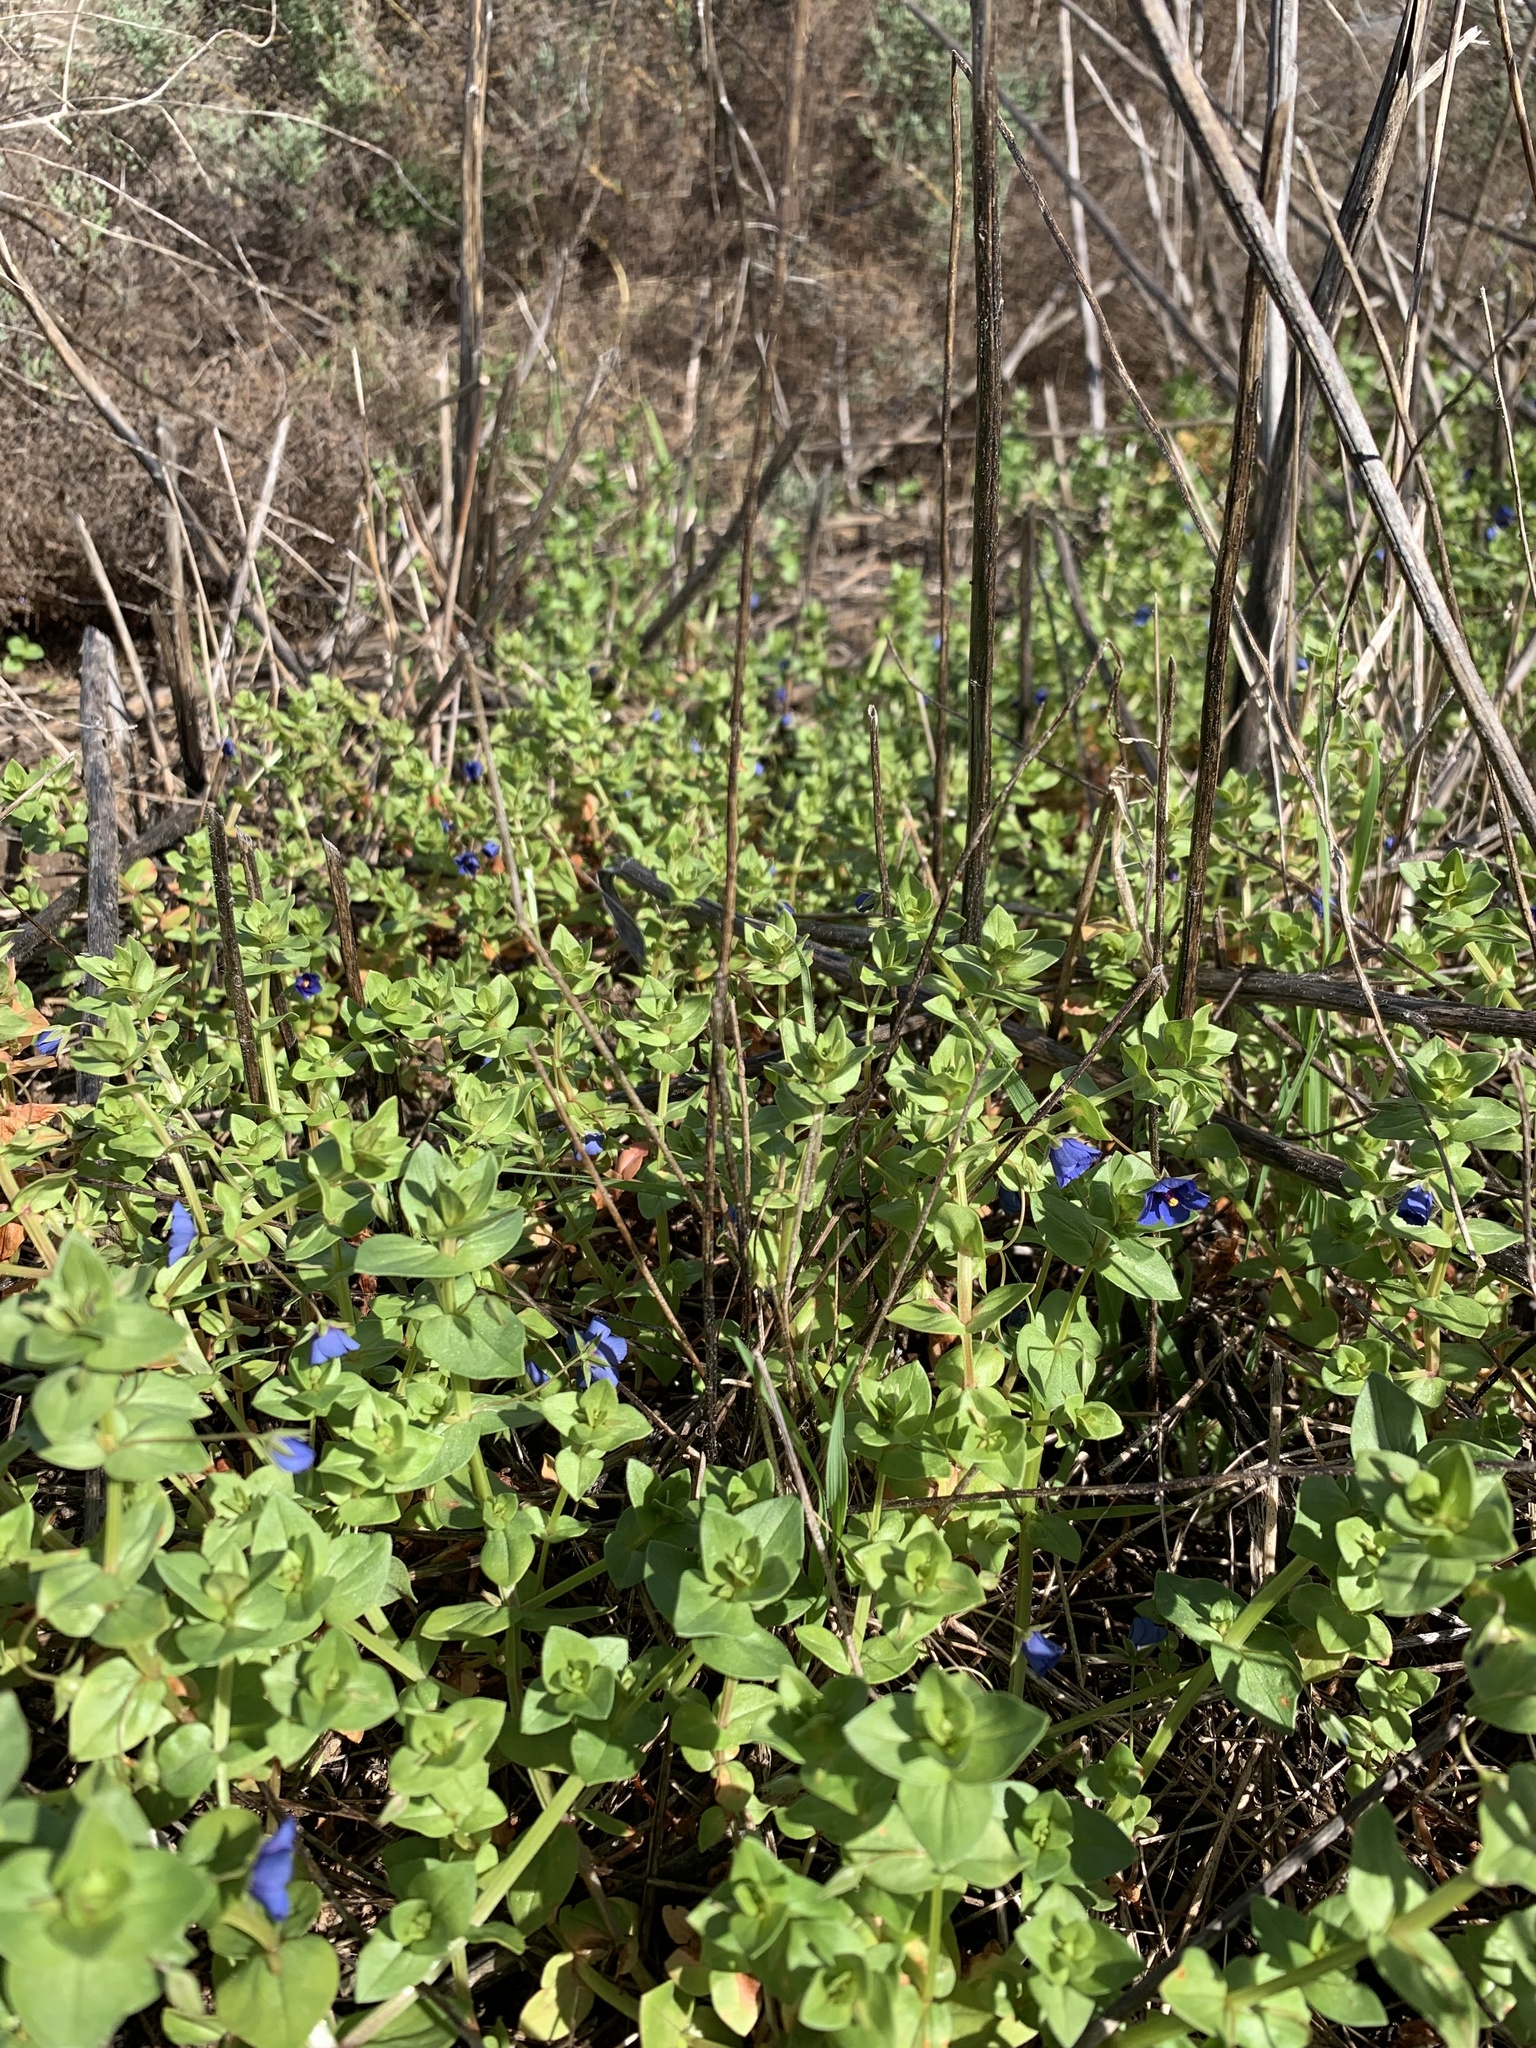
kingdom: Plantae
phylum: Tracheophyta
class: Magnoliopsida
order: Ericales
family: Primulaceae
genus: Lysimachia
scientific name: Lysimachia loeflingii
